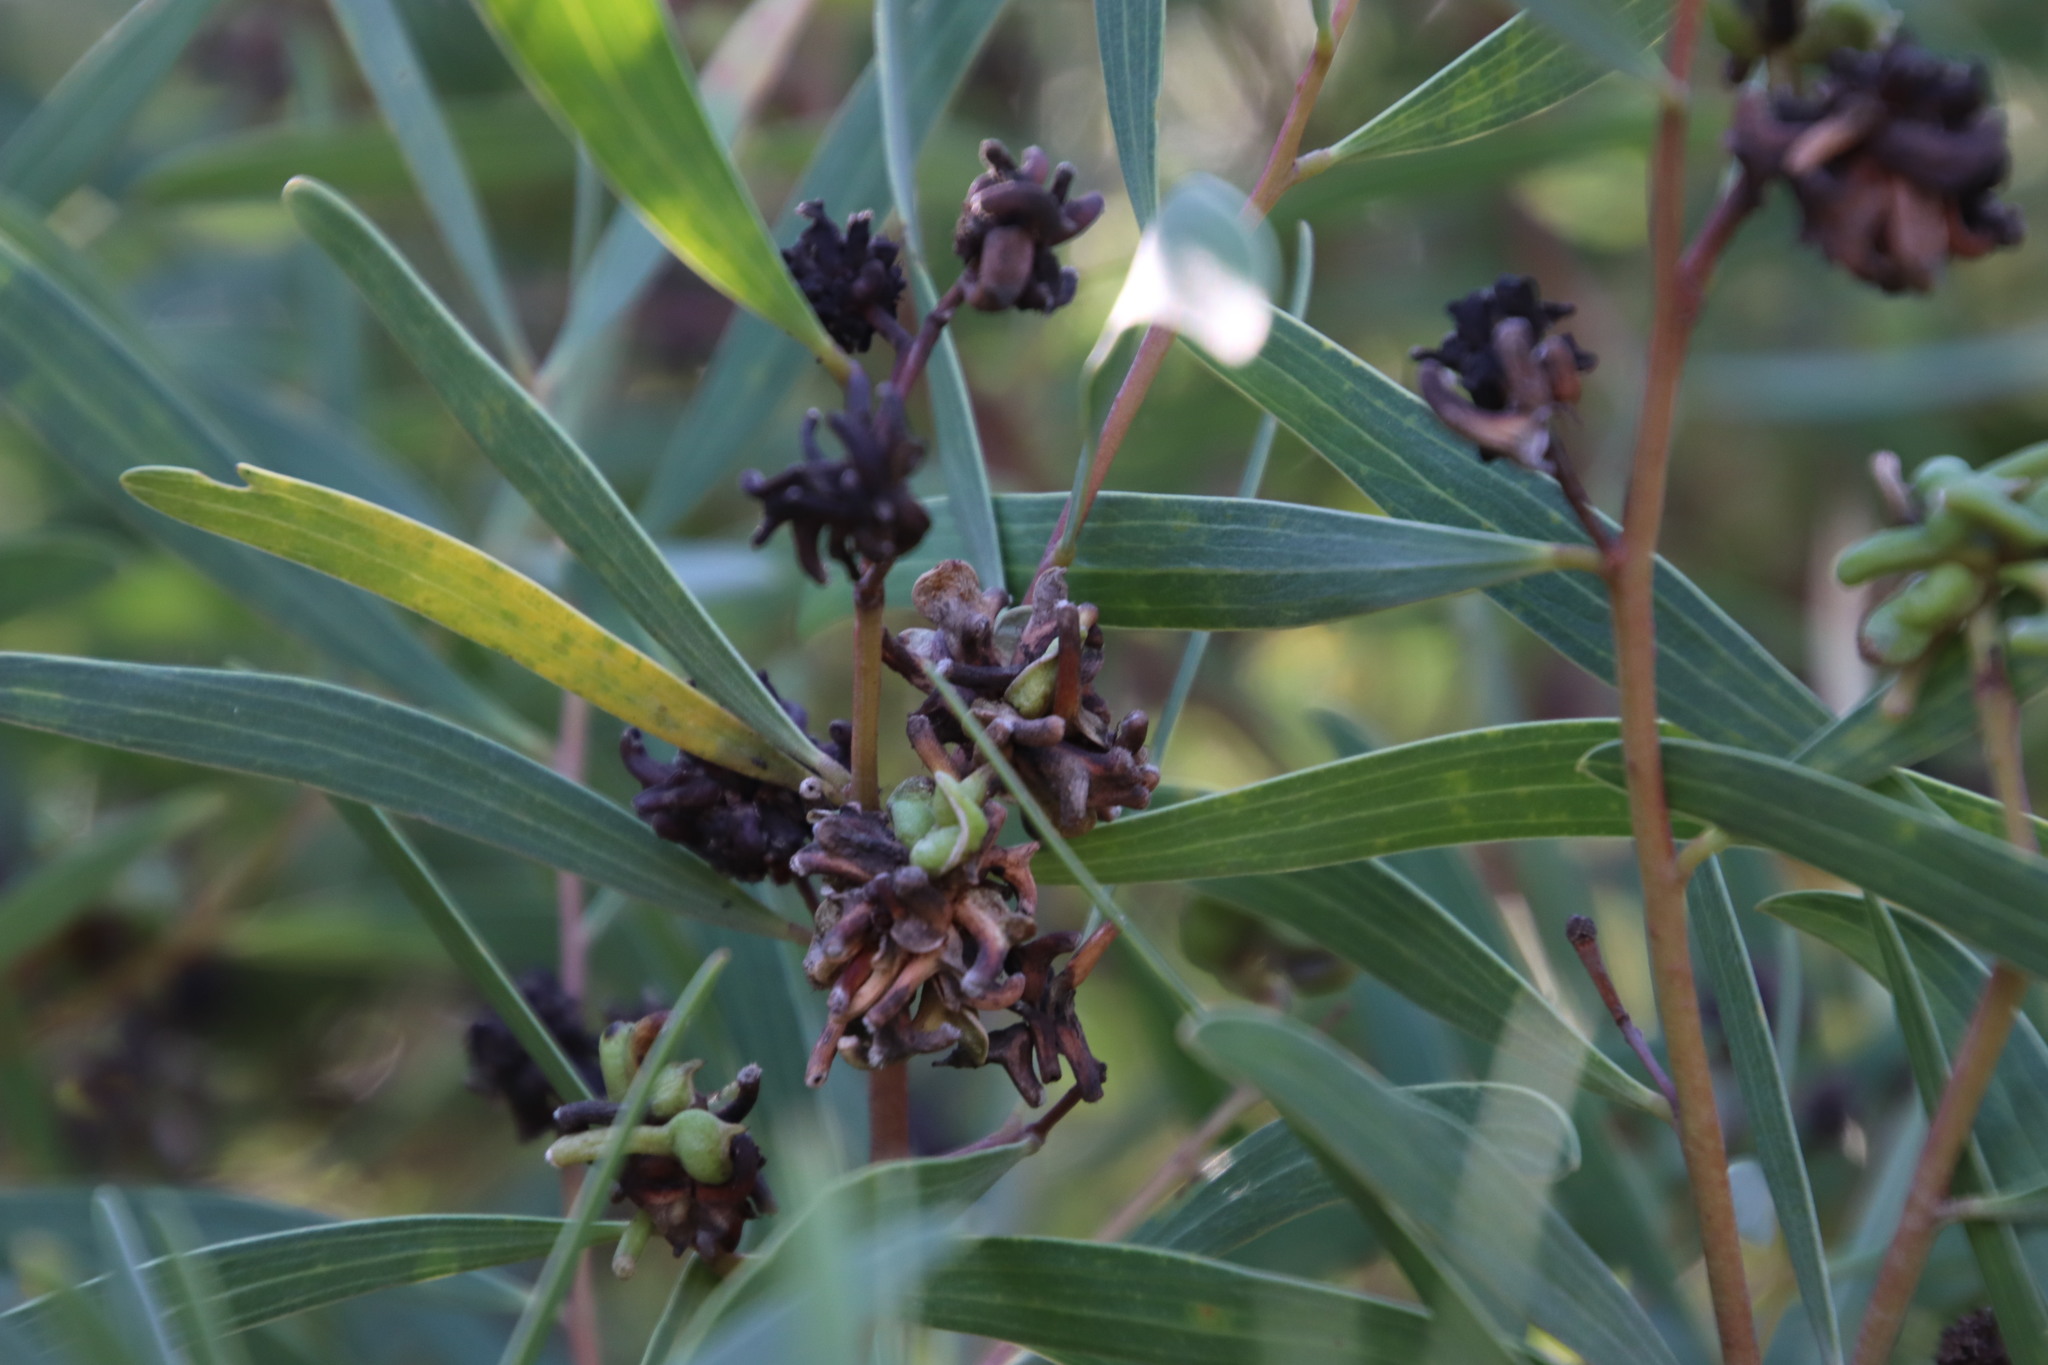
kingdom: Plantae
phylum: Tracheophyta
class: Magnoliopsida
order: Fabales
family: Fabaceae
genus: Acacia
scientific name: Acacia cyclops
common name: Coastal wattle
